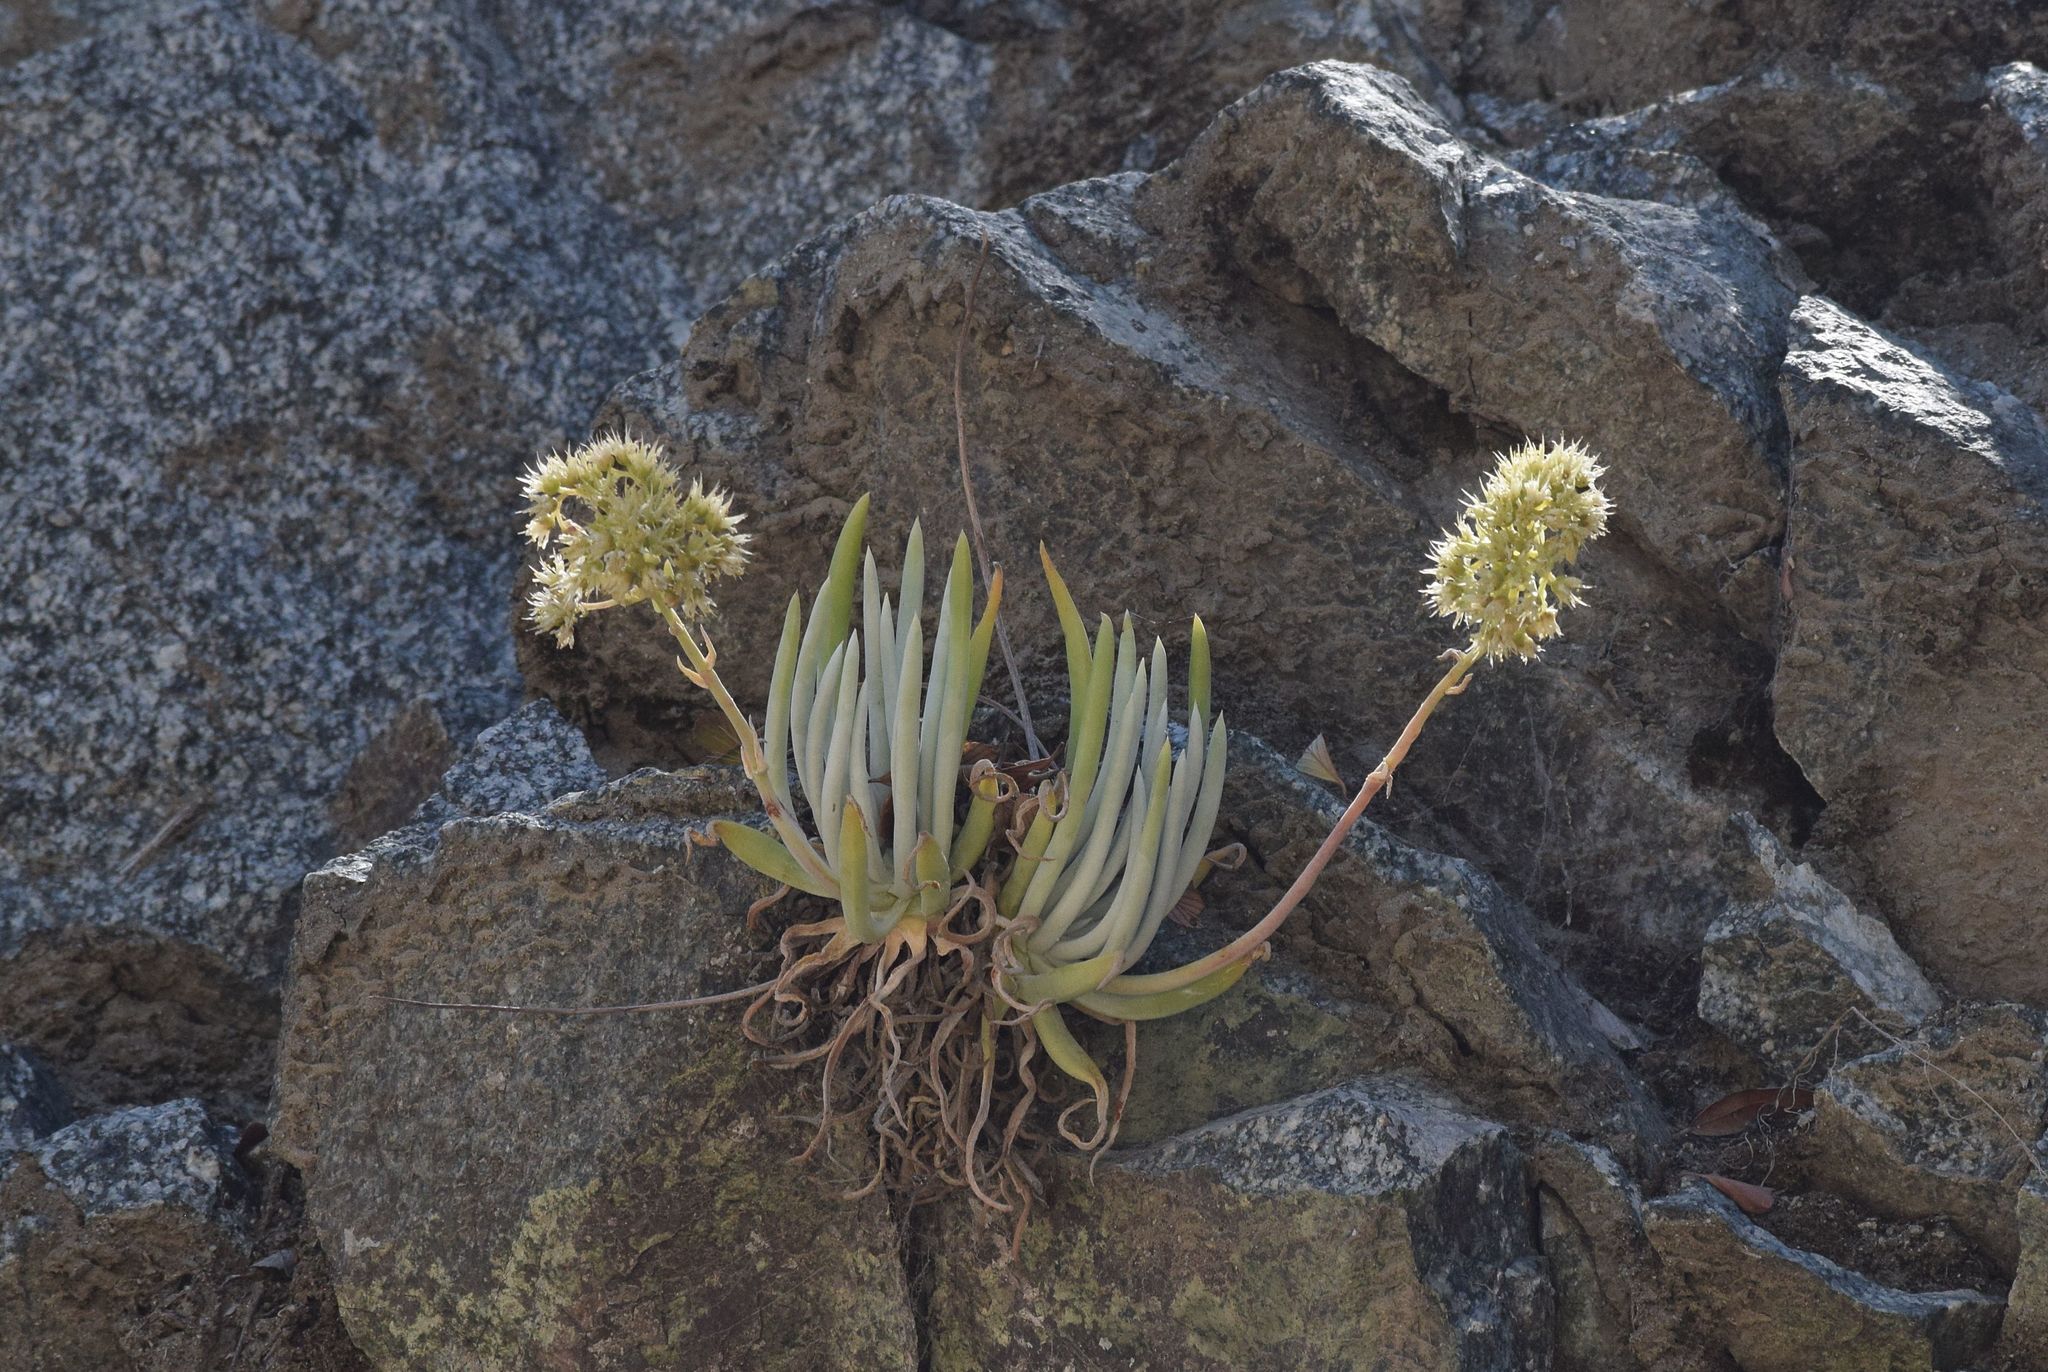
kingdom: Plantae
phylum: Tracheophyta
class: Magnoliopsida
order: Saxifragales
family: Crassulaceae
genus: Dudleya
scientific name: Dudleya densiflora
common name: San gabriel mountains dudleya
